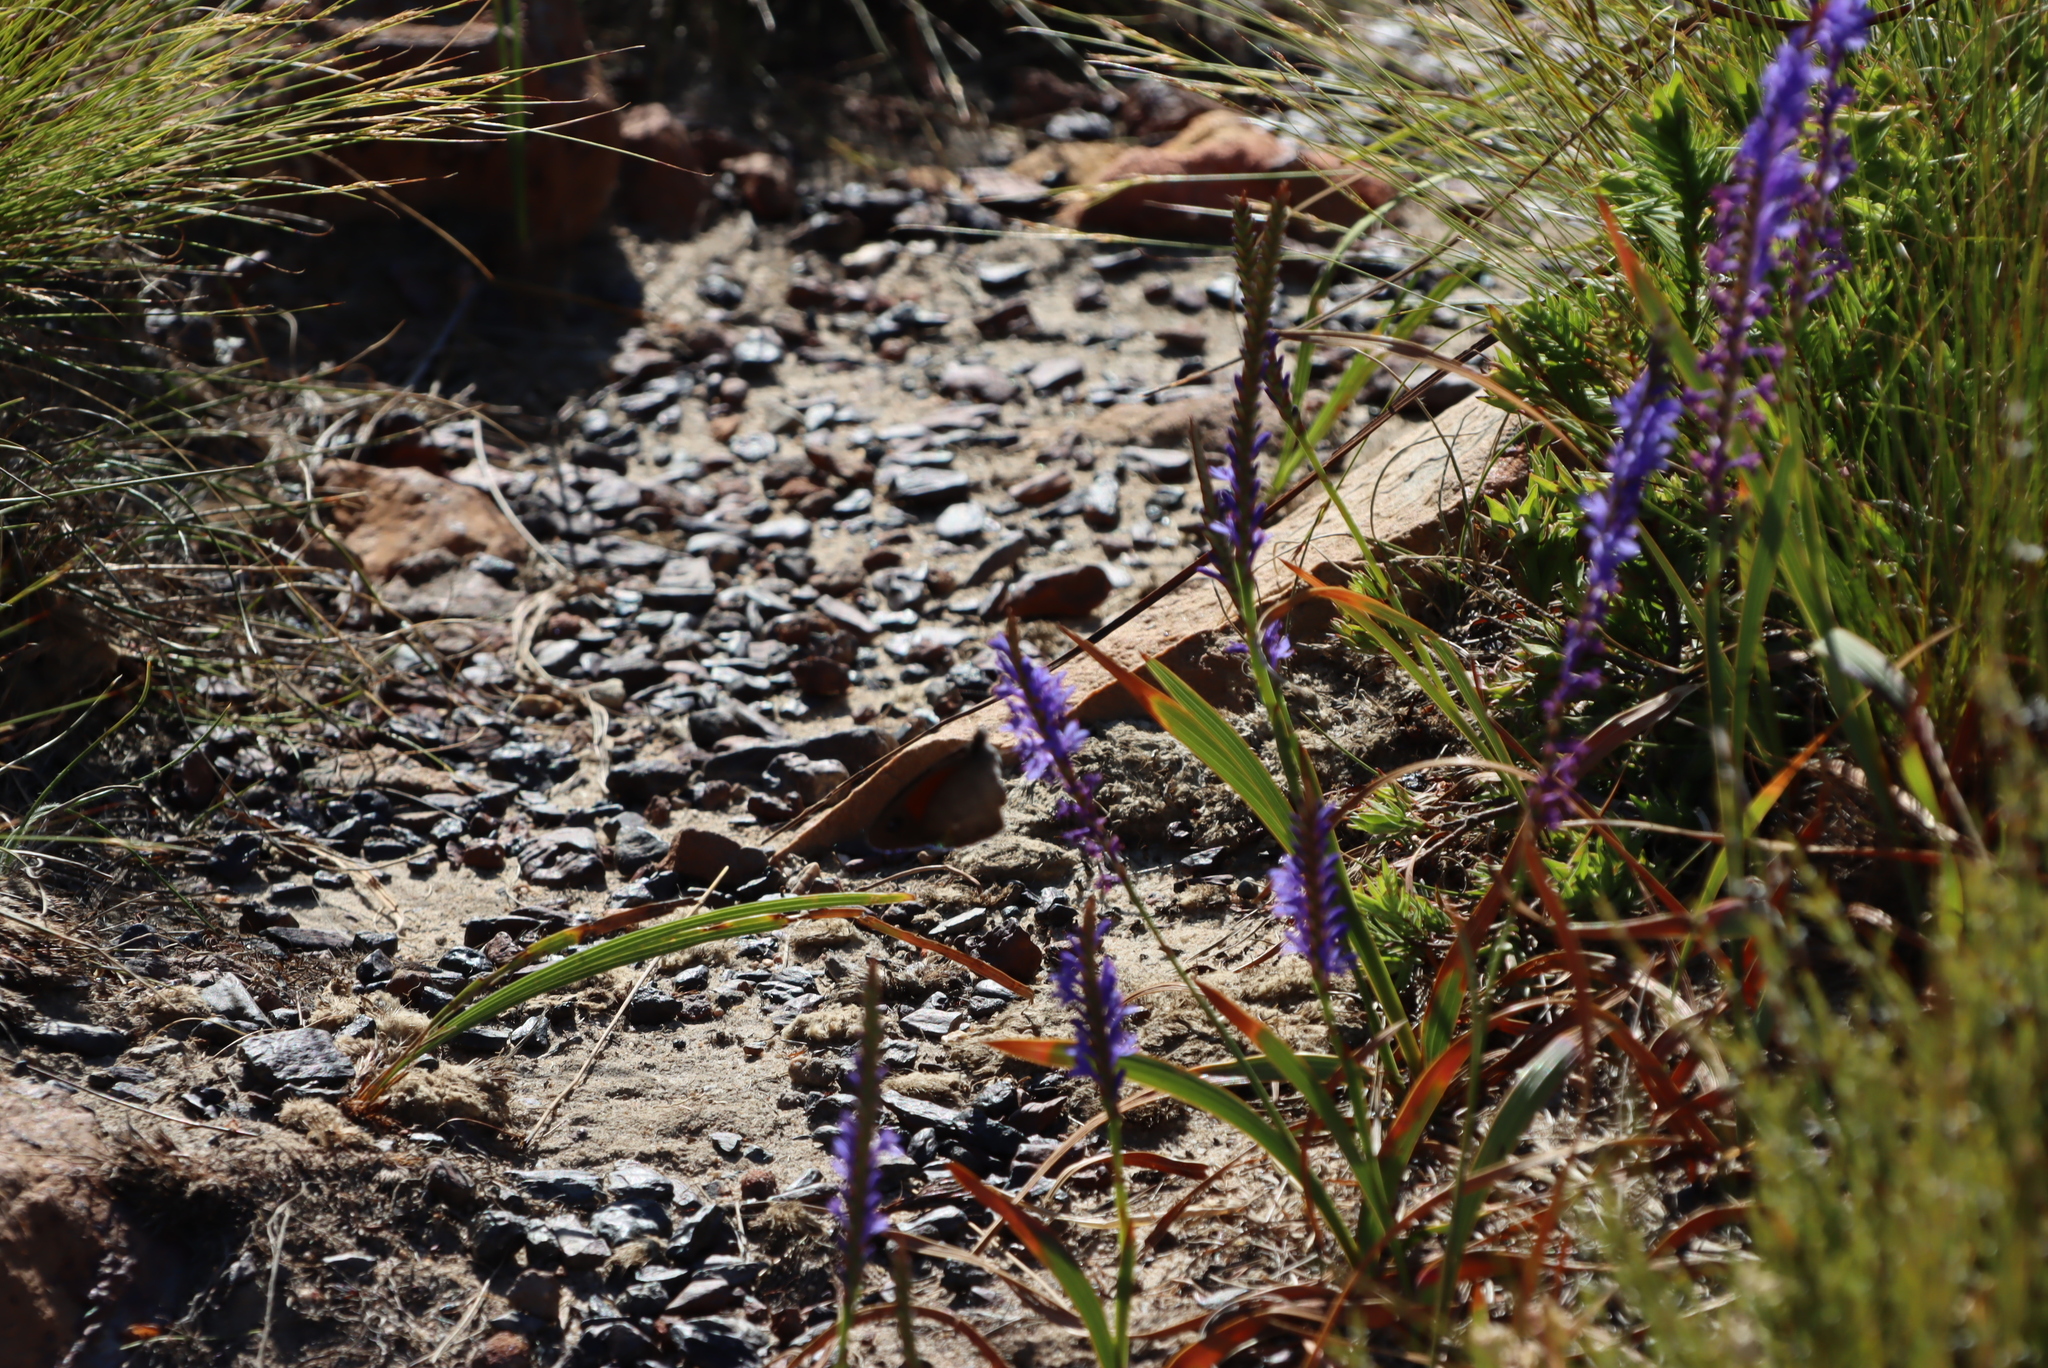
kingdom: Plantae
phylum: Tracheophyta
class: Liliopsida
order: Asparagales
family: Iridaceae
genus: Micranthus
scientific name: Micranthus alopecuroides
